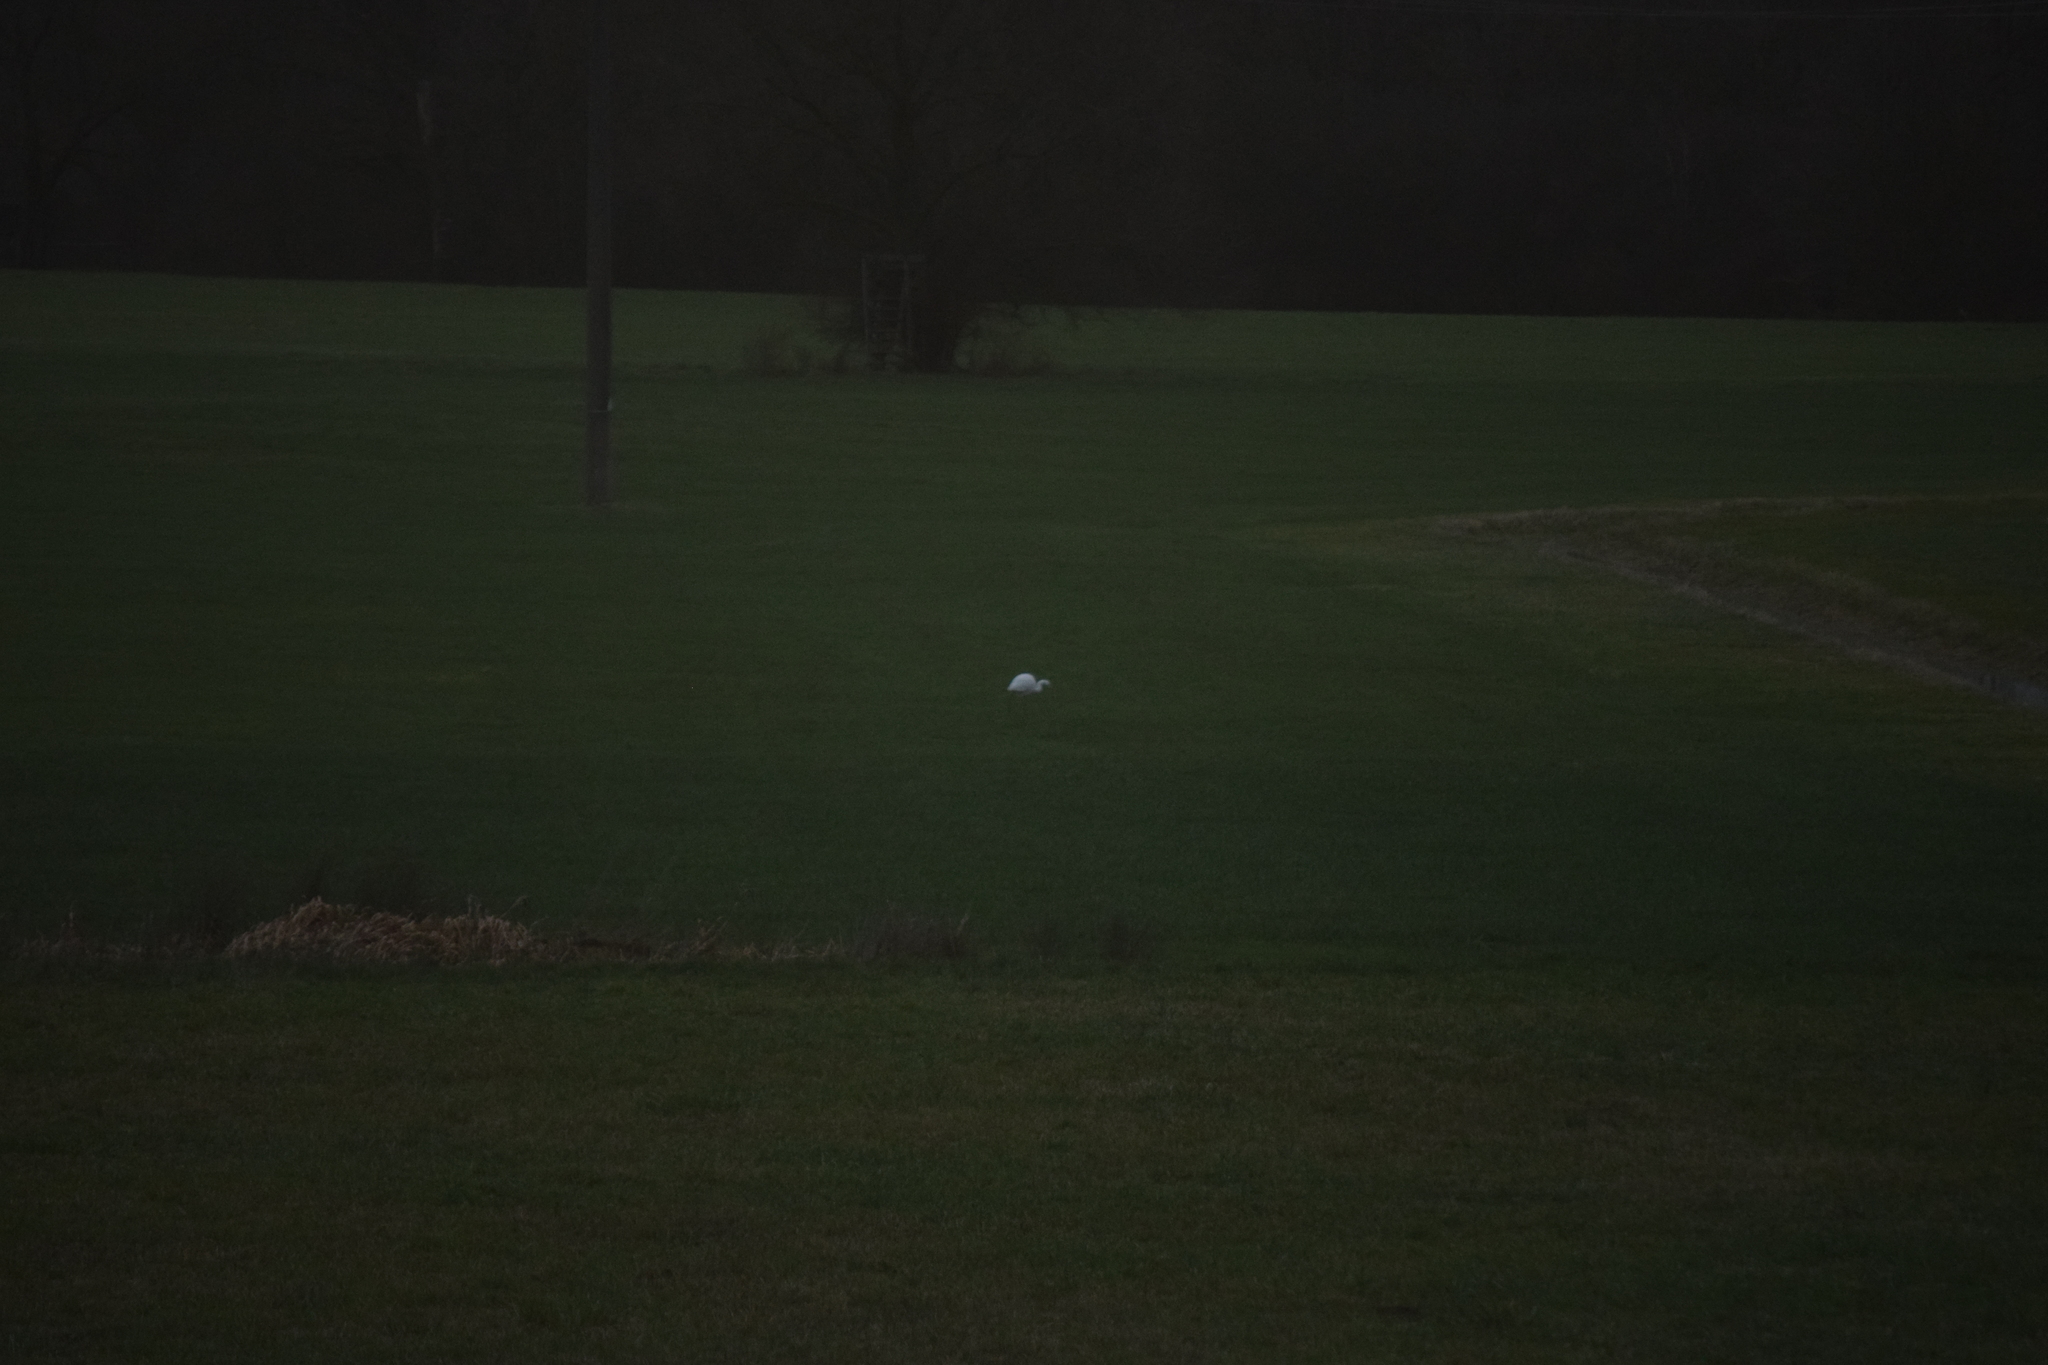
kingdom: Animalia
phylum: Chordata
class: Aves
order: Pelecaniformes
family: Ardeidae
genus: Ardea
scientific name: Ardea alba
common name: Great egret
